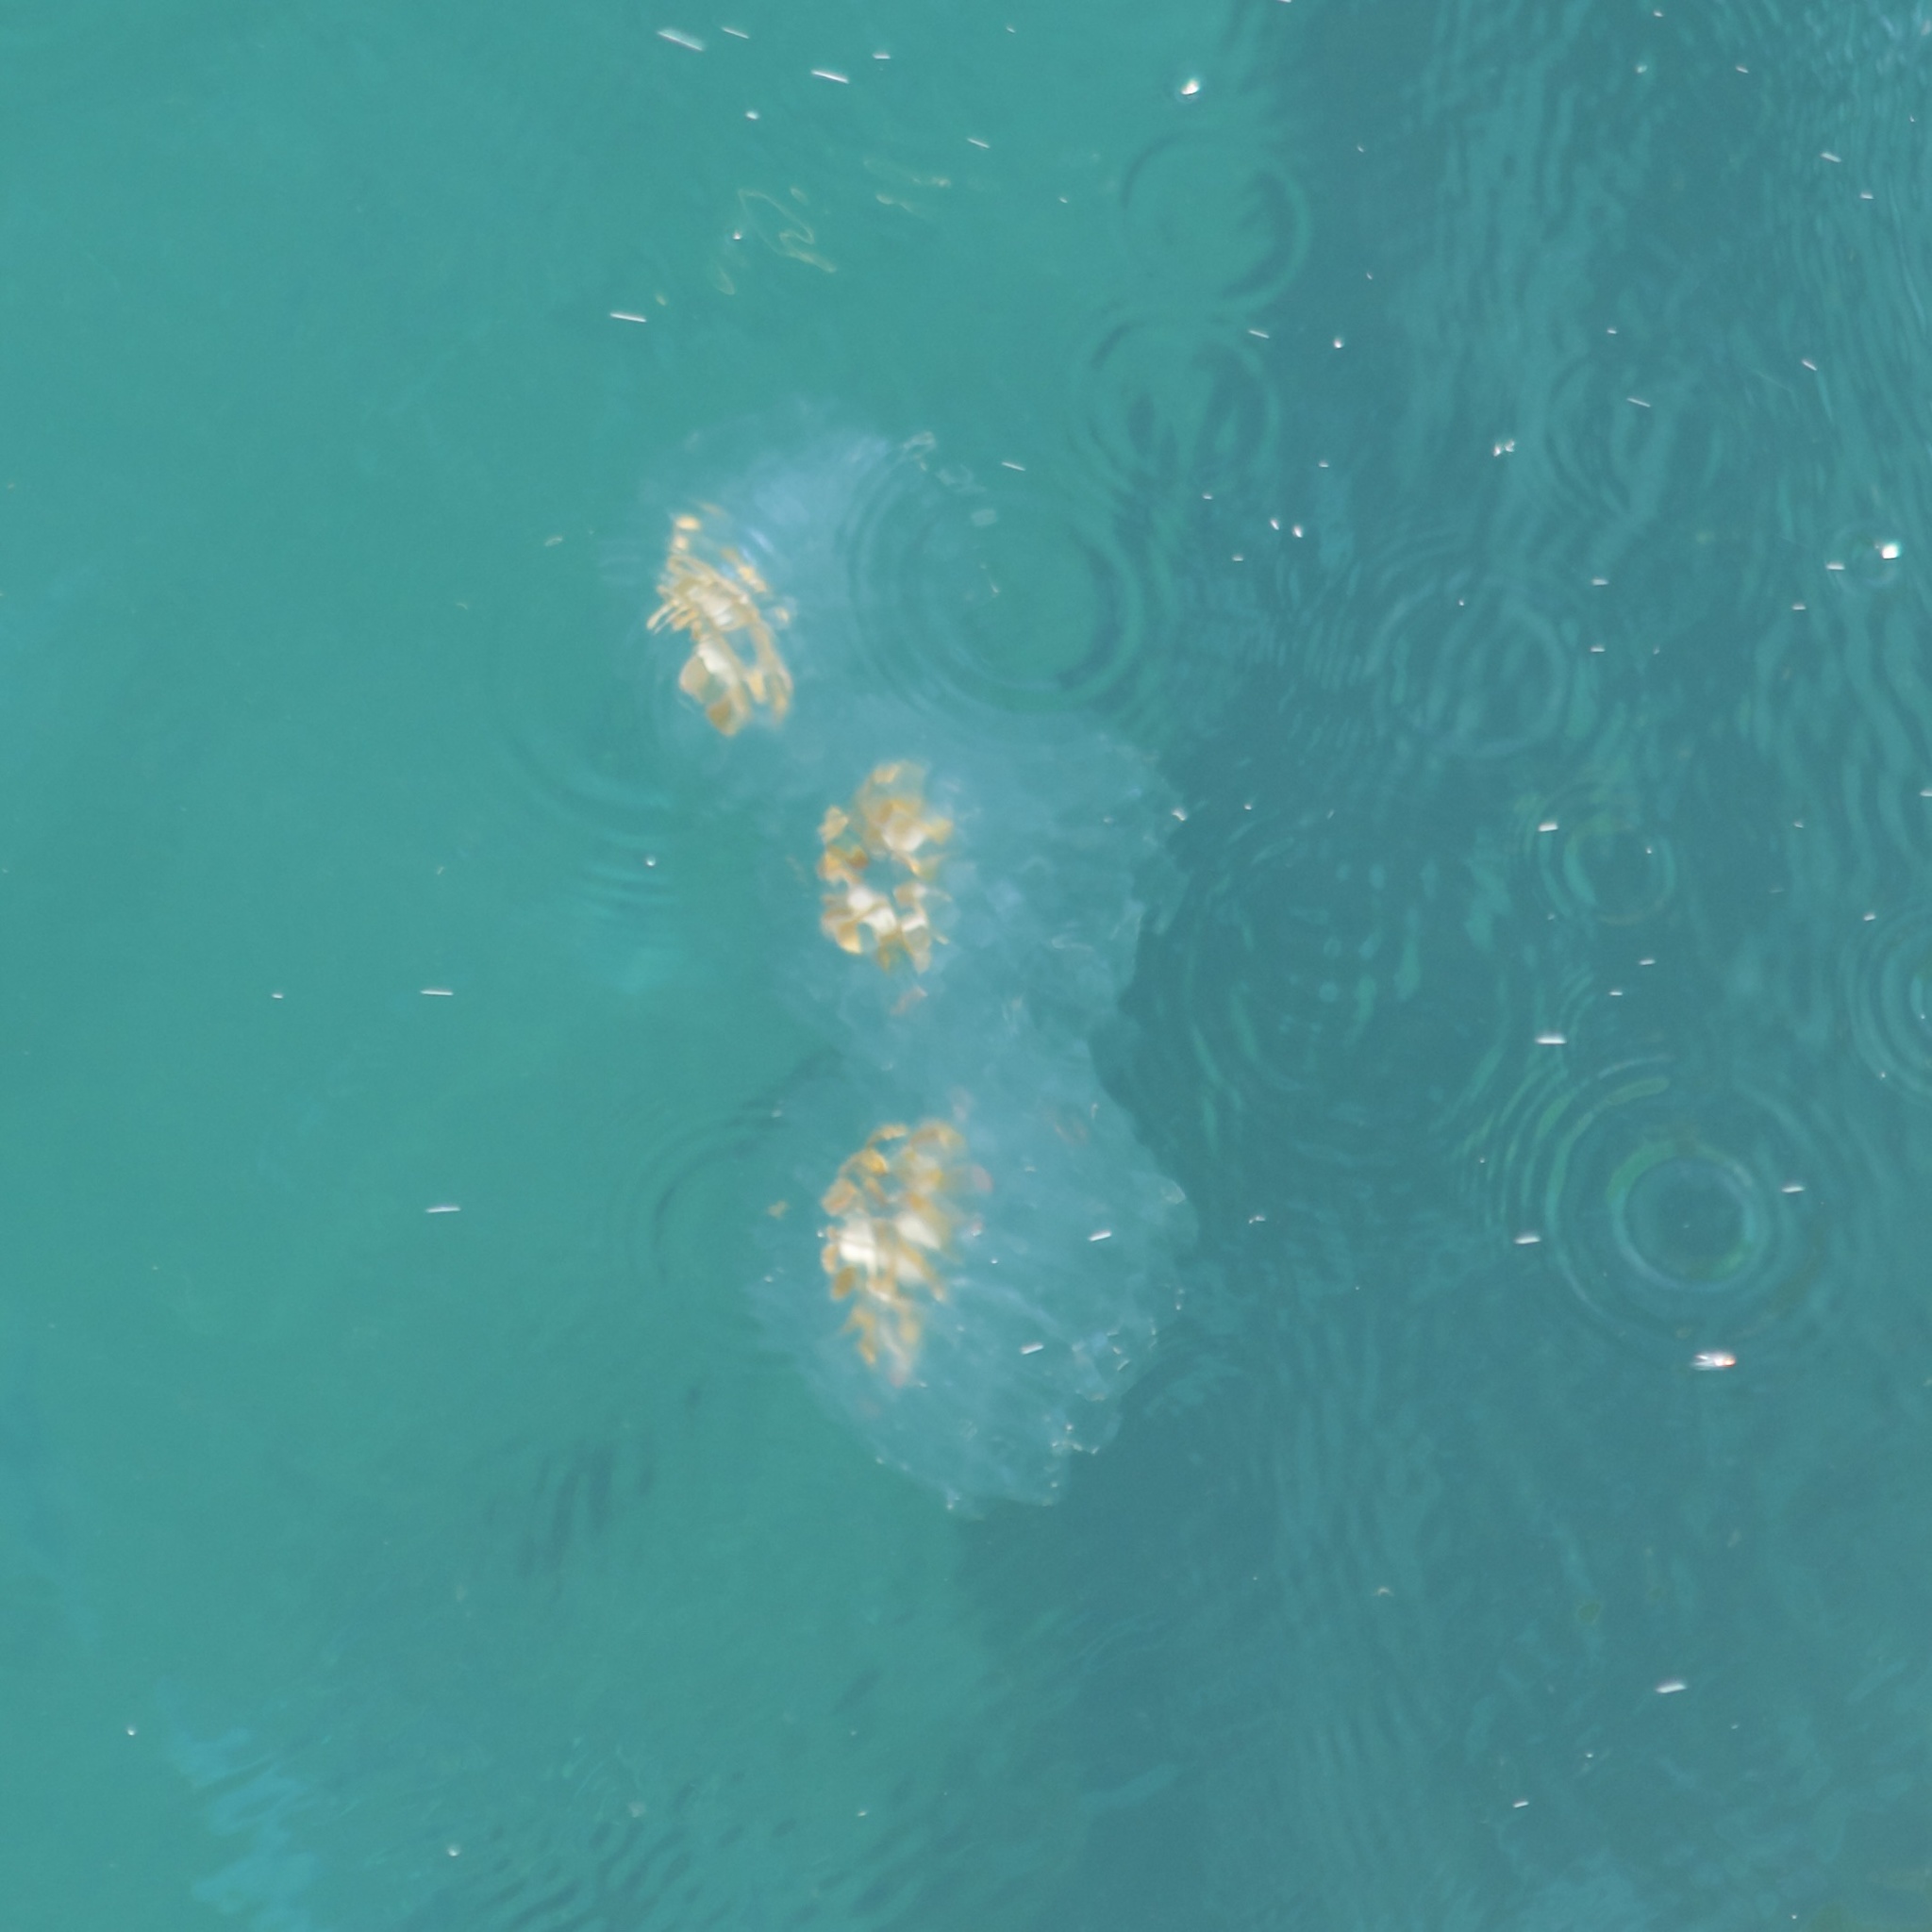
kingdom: Animalia
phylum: Chordata
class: Thaliacea
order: Salpida
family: Salpidae
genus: Cyclosalpa
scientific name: Cyclosalpa affinis
